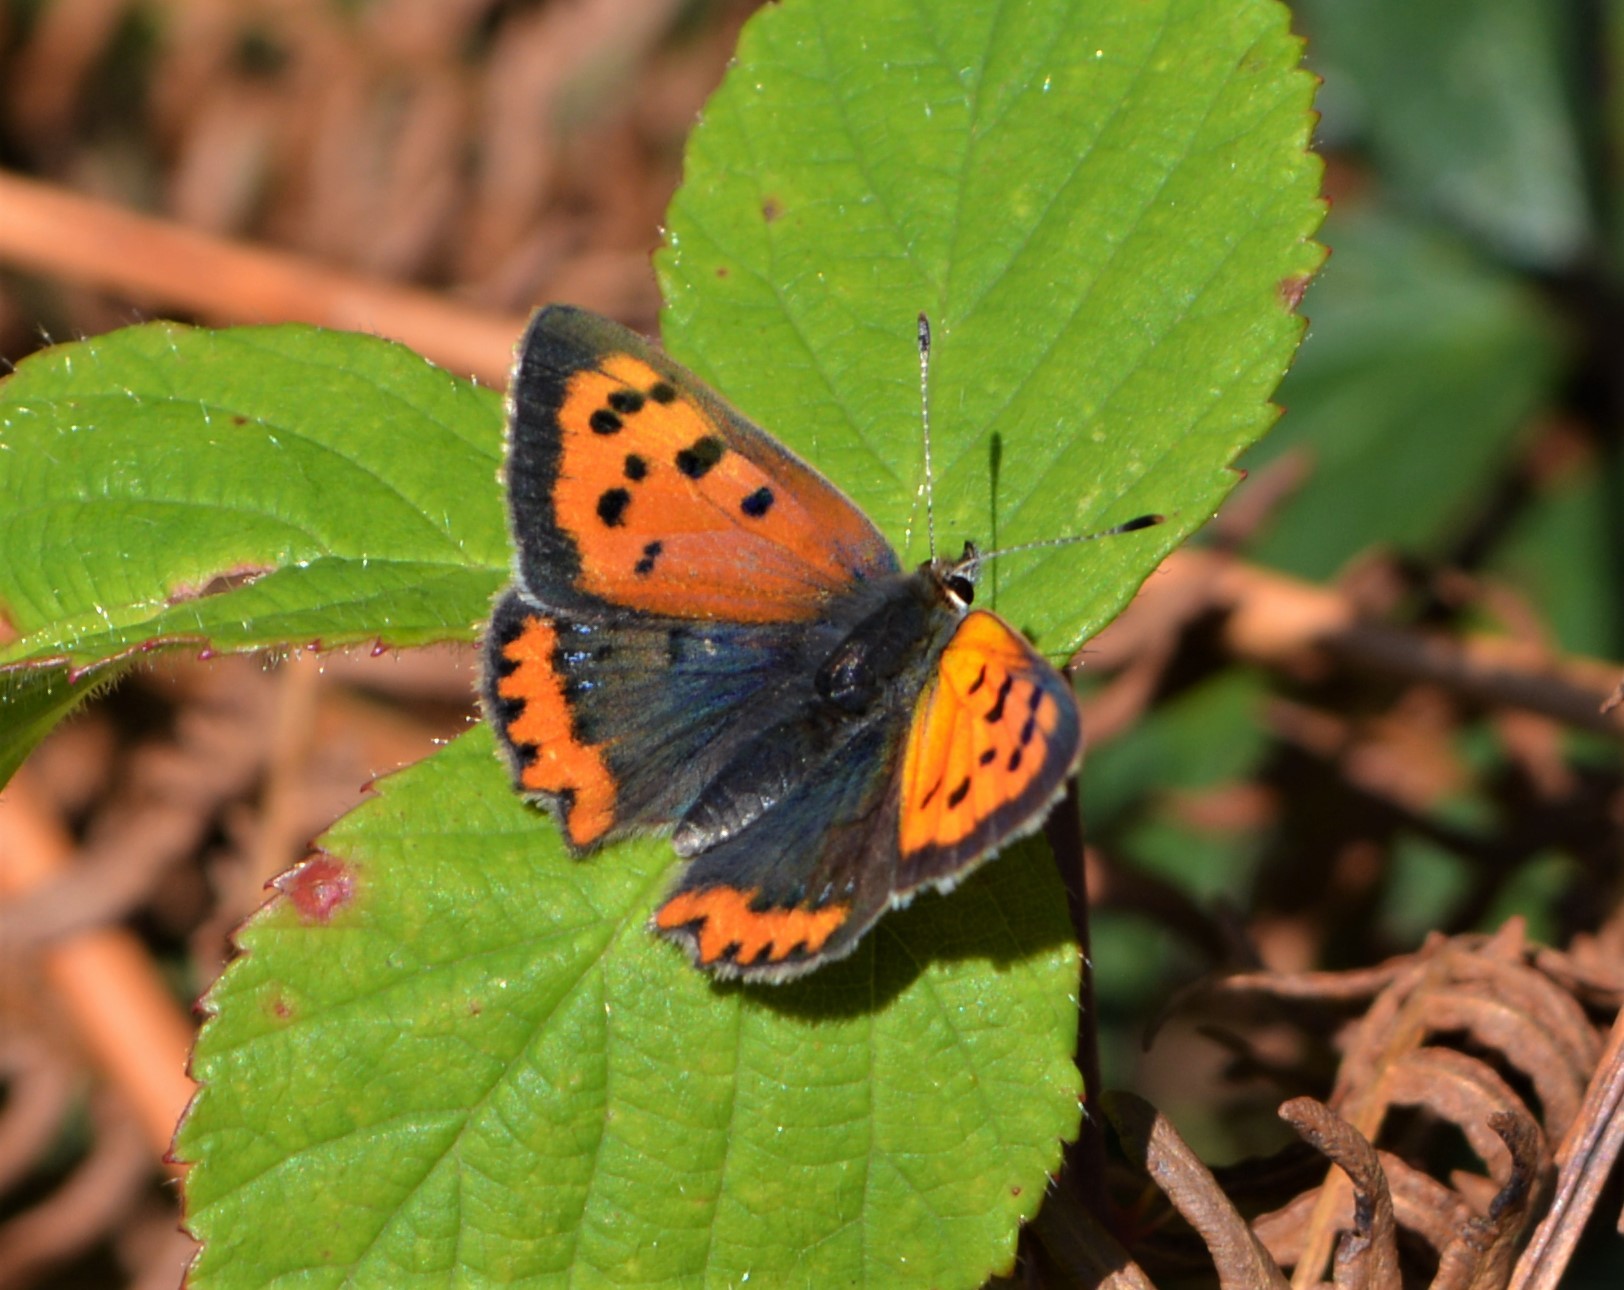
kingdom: Animalia
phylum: Arthropoda
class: Insecta
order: Lepidoptera
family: Lycaenidae
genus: Lycaena
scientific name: Lycaena phlaeas
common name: Small copper
